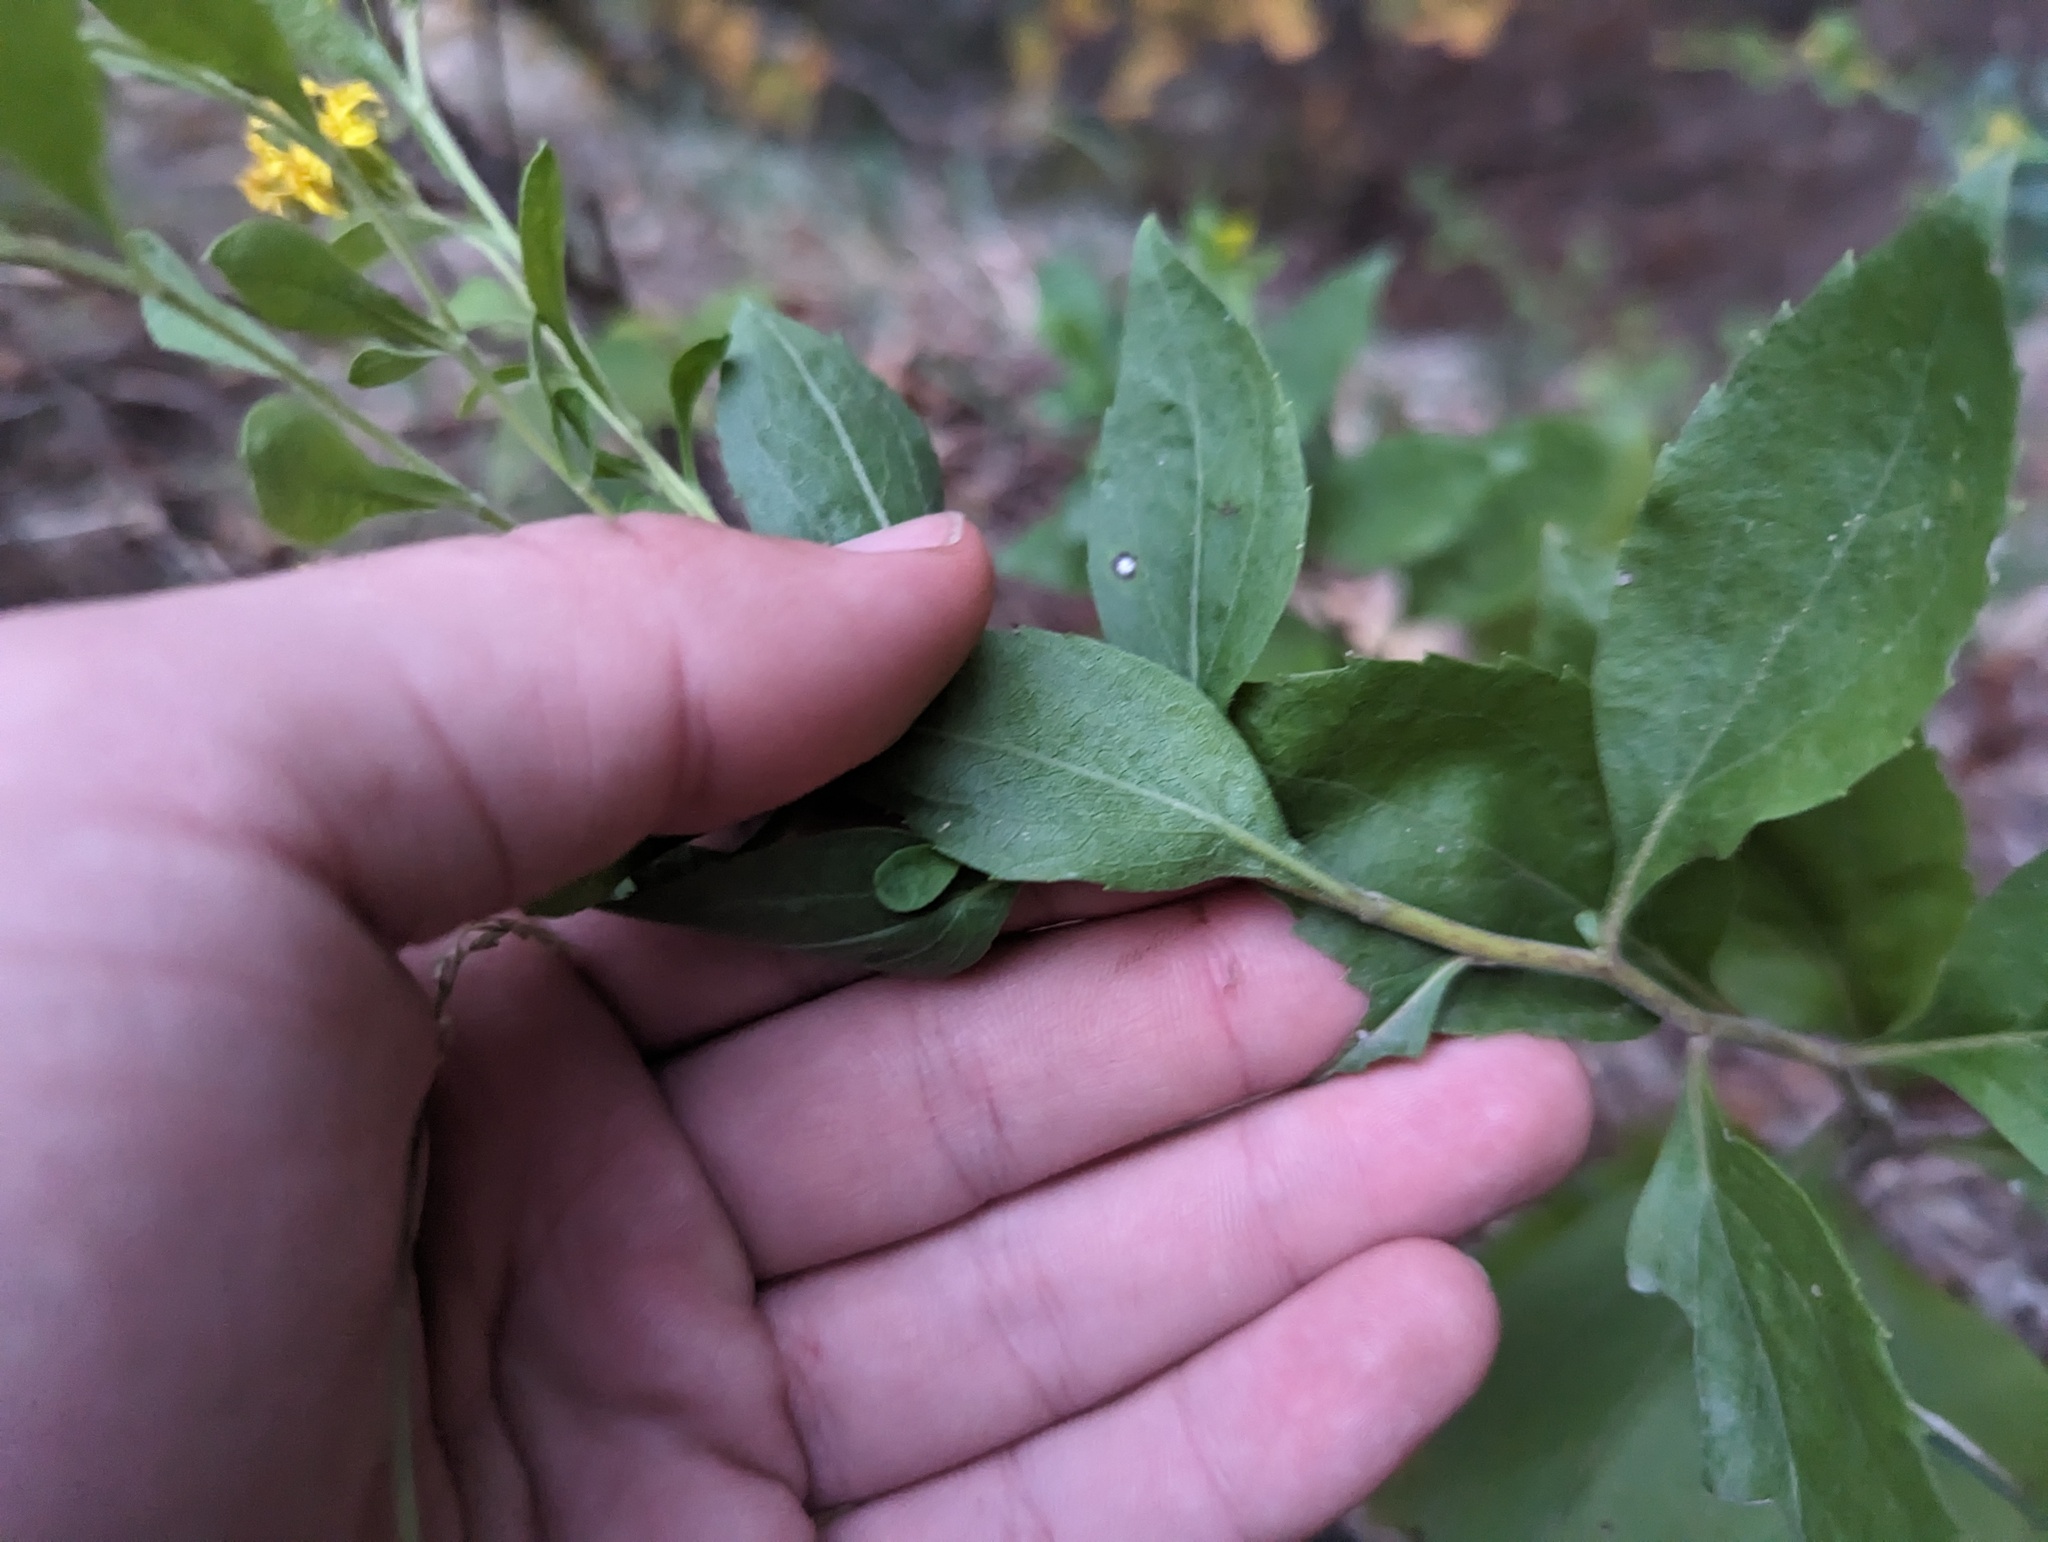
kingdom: Plantae
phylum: Tracheophyta
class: Magnoliopsida
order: Asterales
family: Asteraceae
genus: Solidago
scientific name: Solidago drummondii
